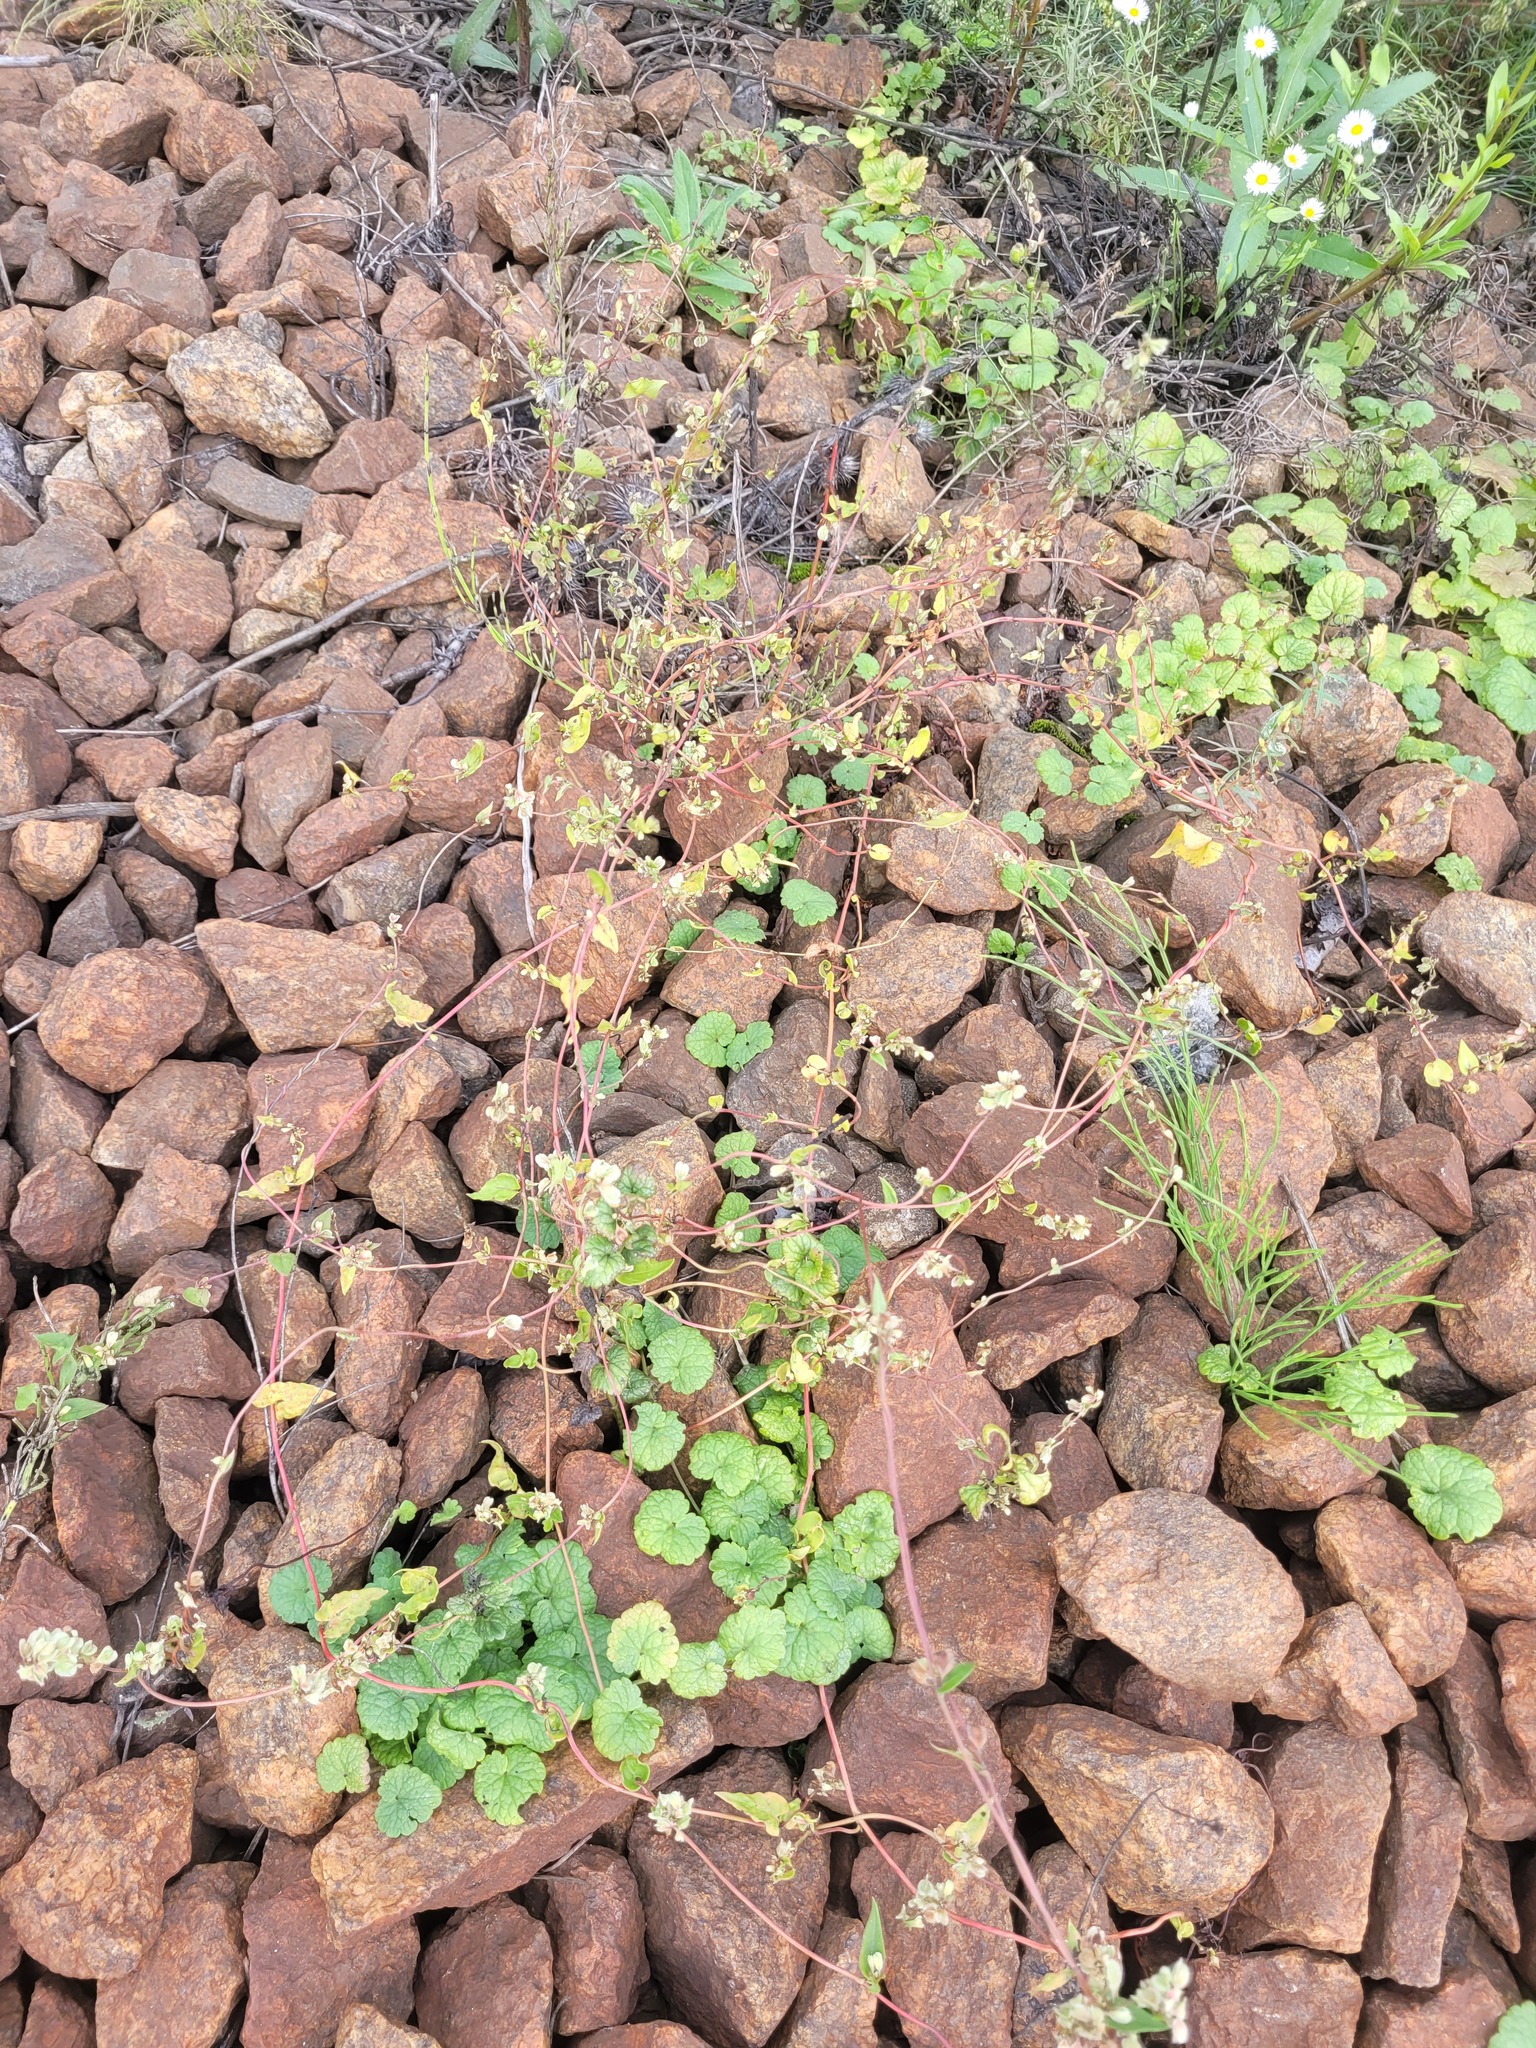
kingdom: Plantae
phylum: Tracheophyta
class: Magnoliopsida
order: Caryophyllales
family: Polygonaceae
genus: Fallopia
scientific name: Fallopia convolvulus
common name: Black bindweed
